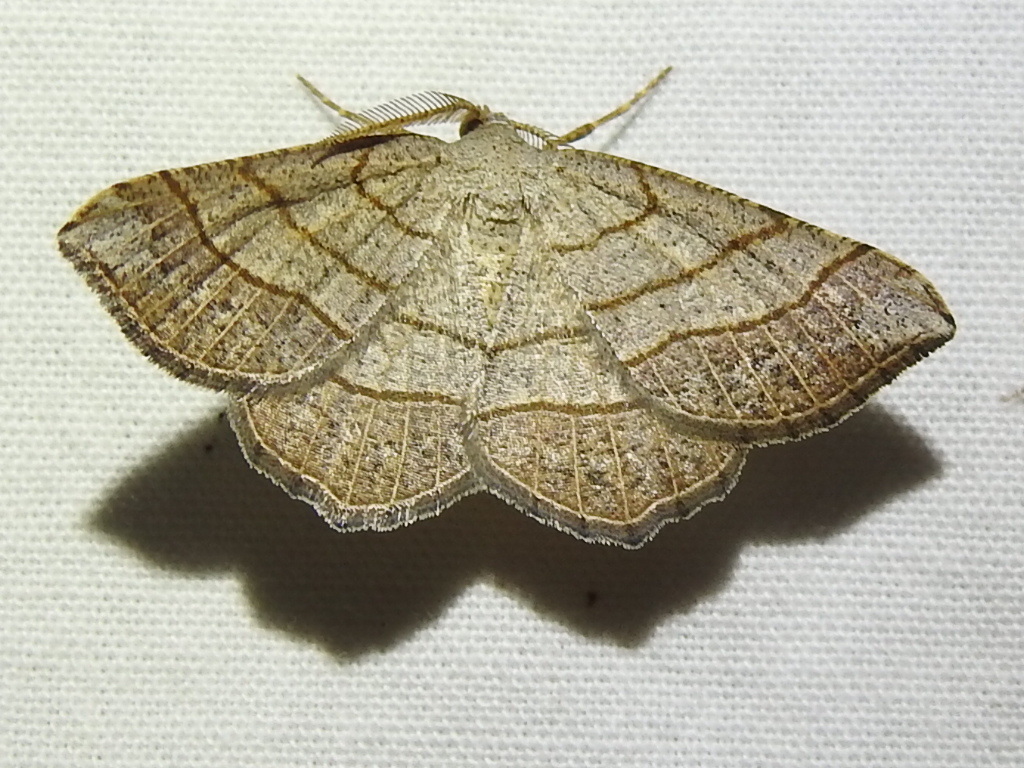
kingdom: Animalia
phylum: Arthropoda
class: Insecta
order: Lepidoptera
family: Geometridae
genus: Eumacaria
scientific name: Eumacaria madopata
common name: Brown-bordered geometer
